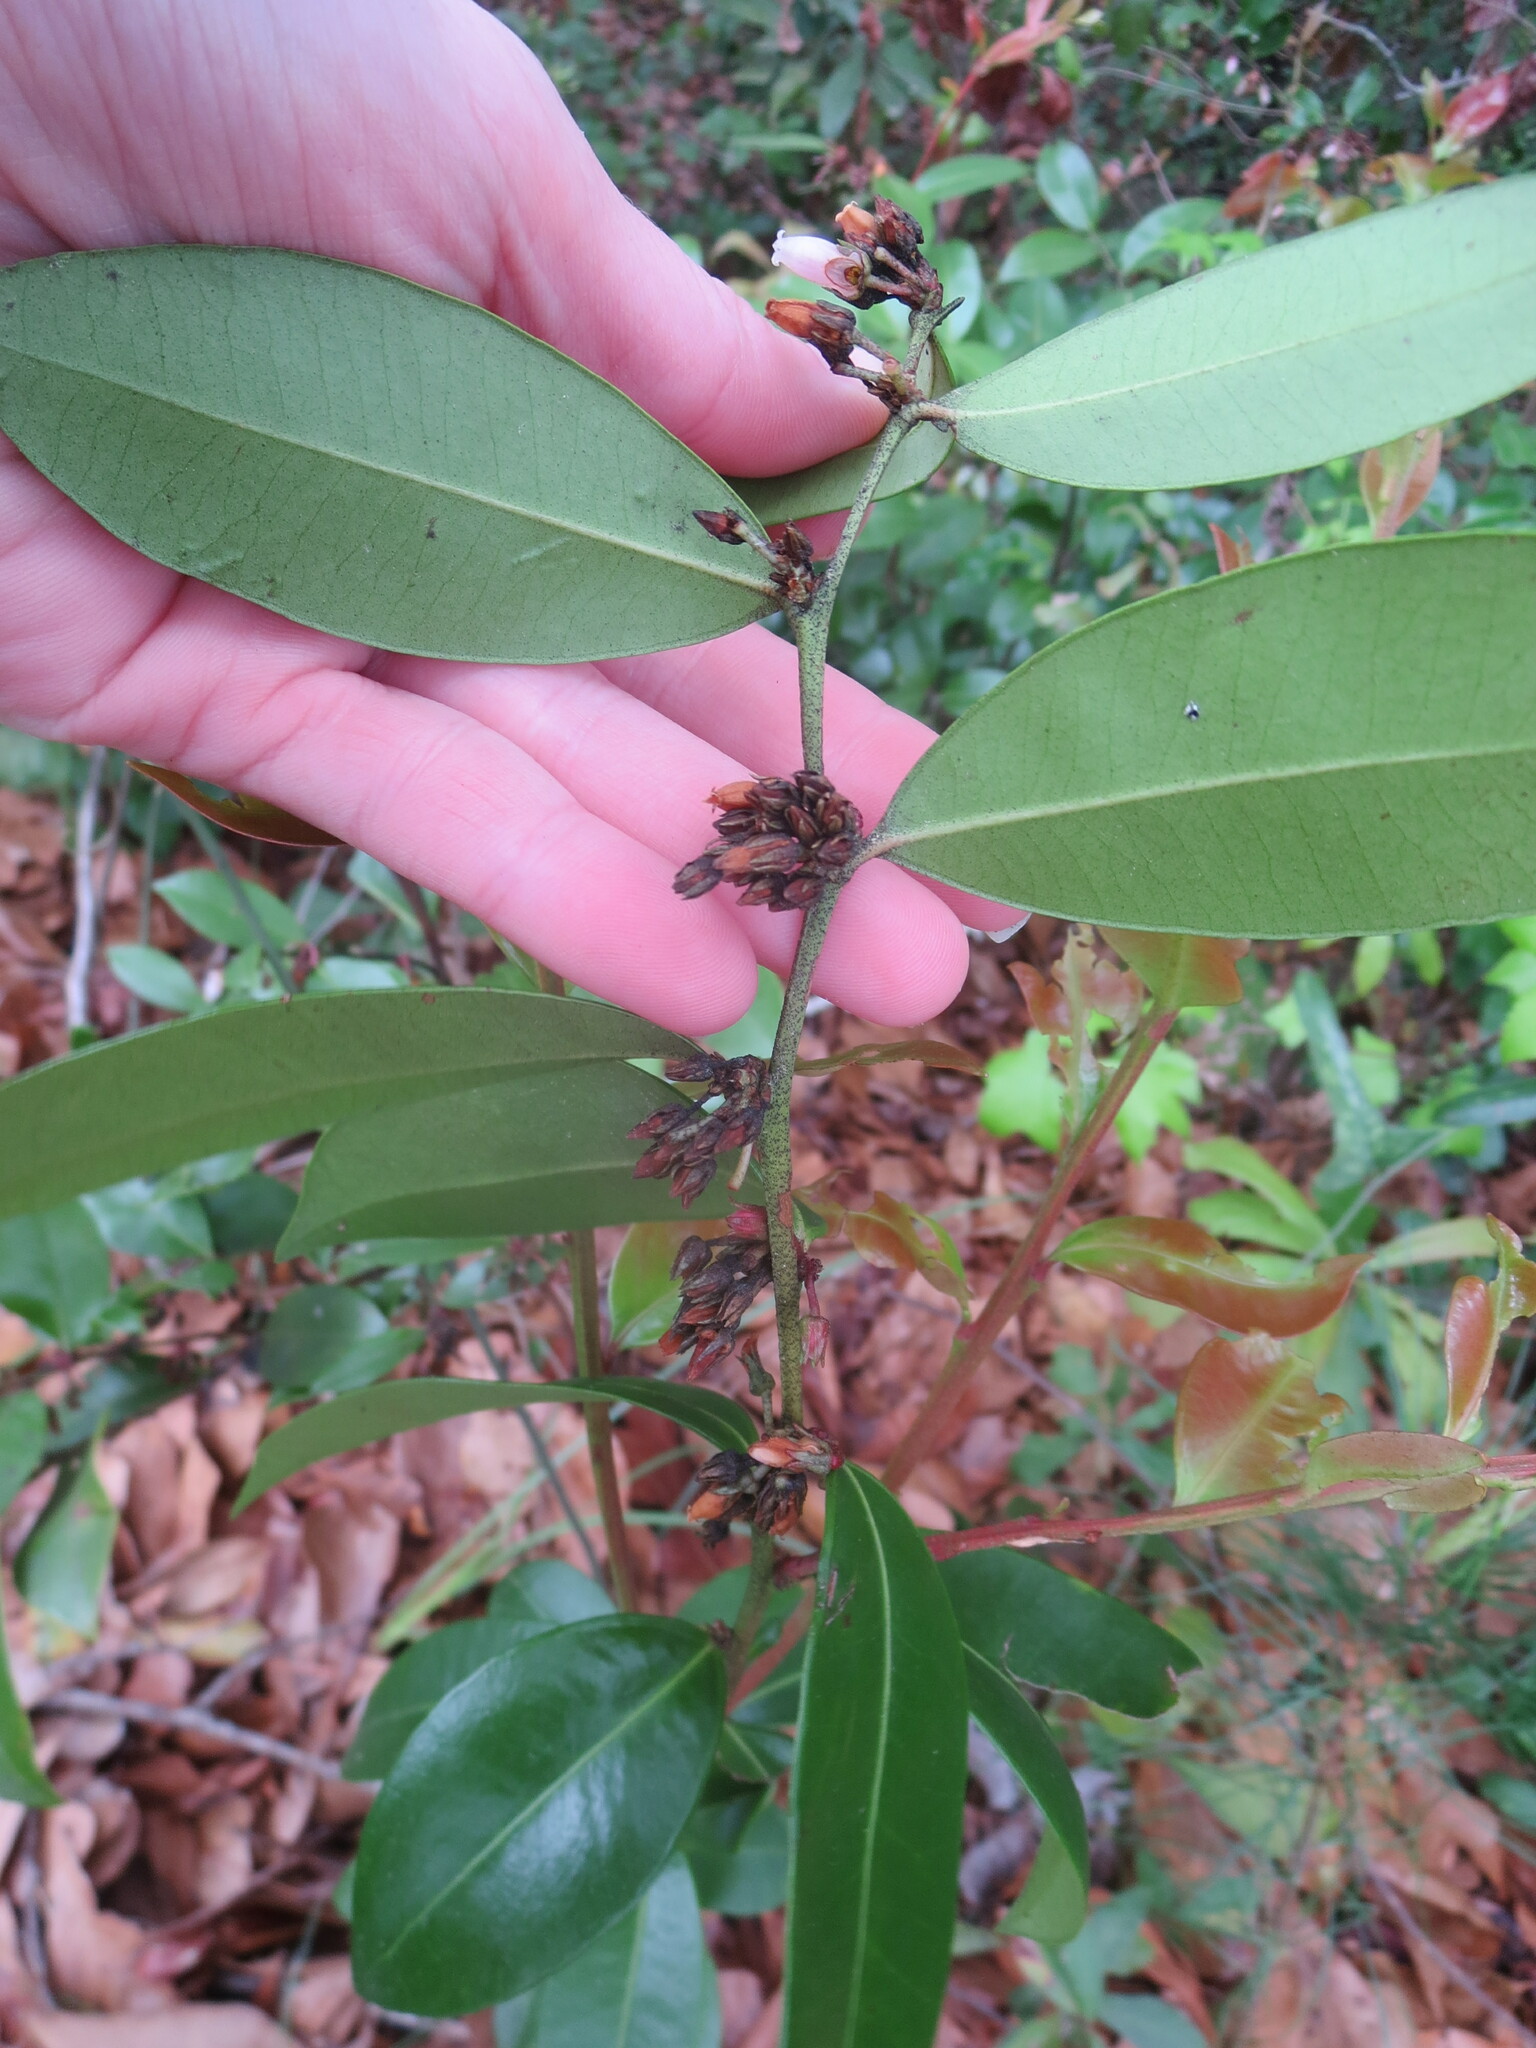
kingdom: Plantae
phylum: Tracheophyta
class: Magnoliopsida
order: Ericales
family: Ericaceae
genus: Lyonia
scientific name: Lyonia lucida
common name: Fetterbush
